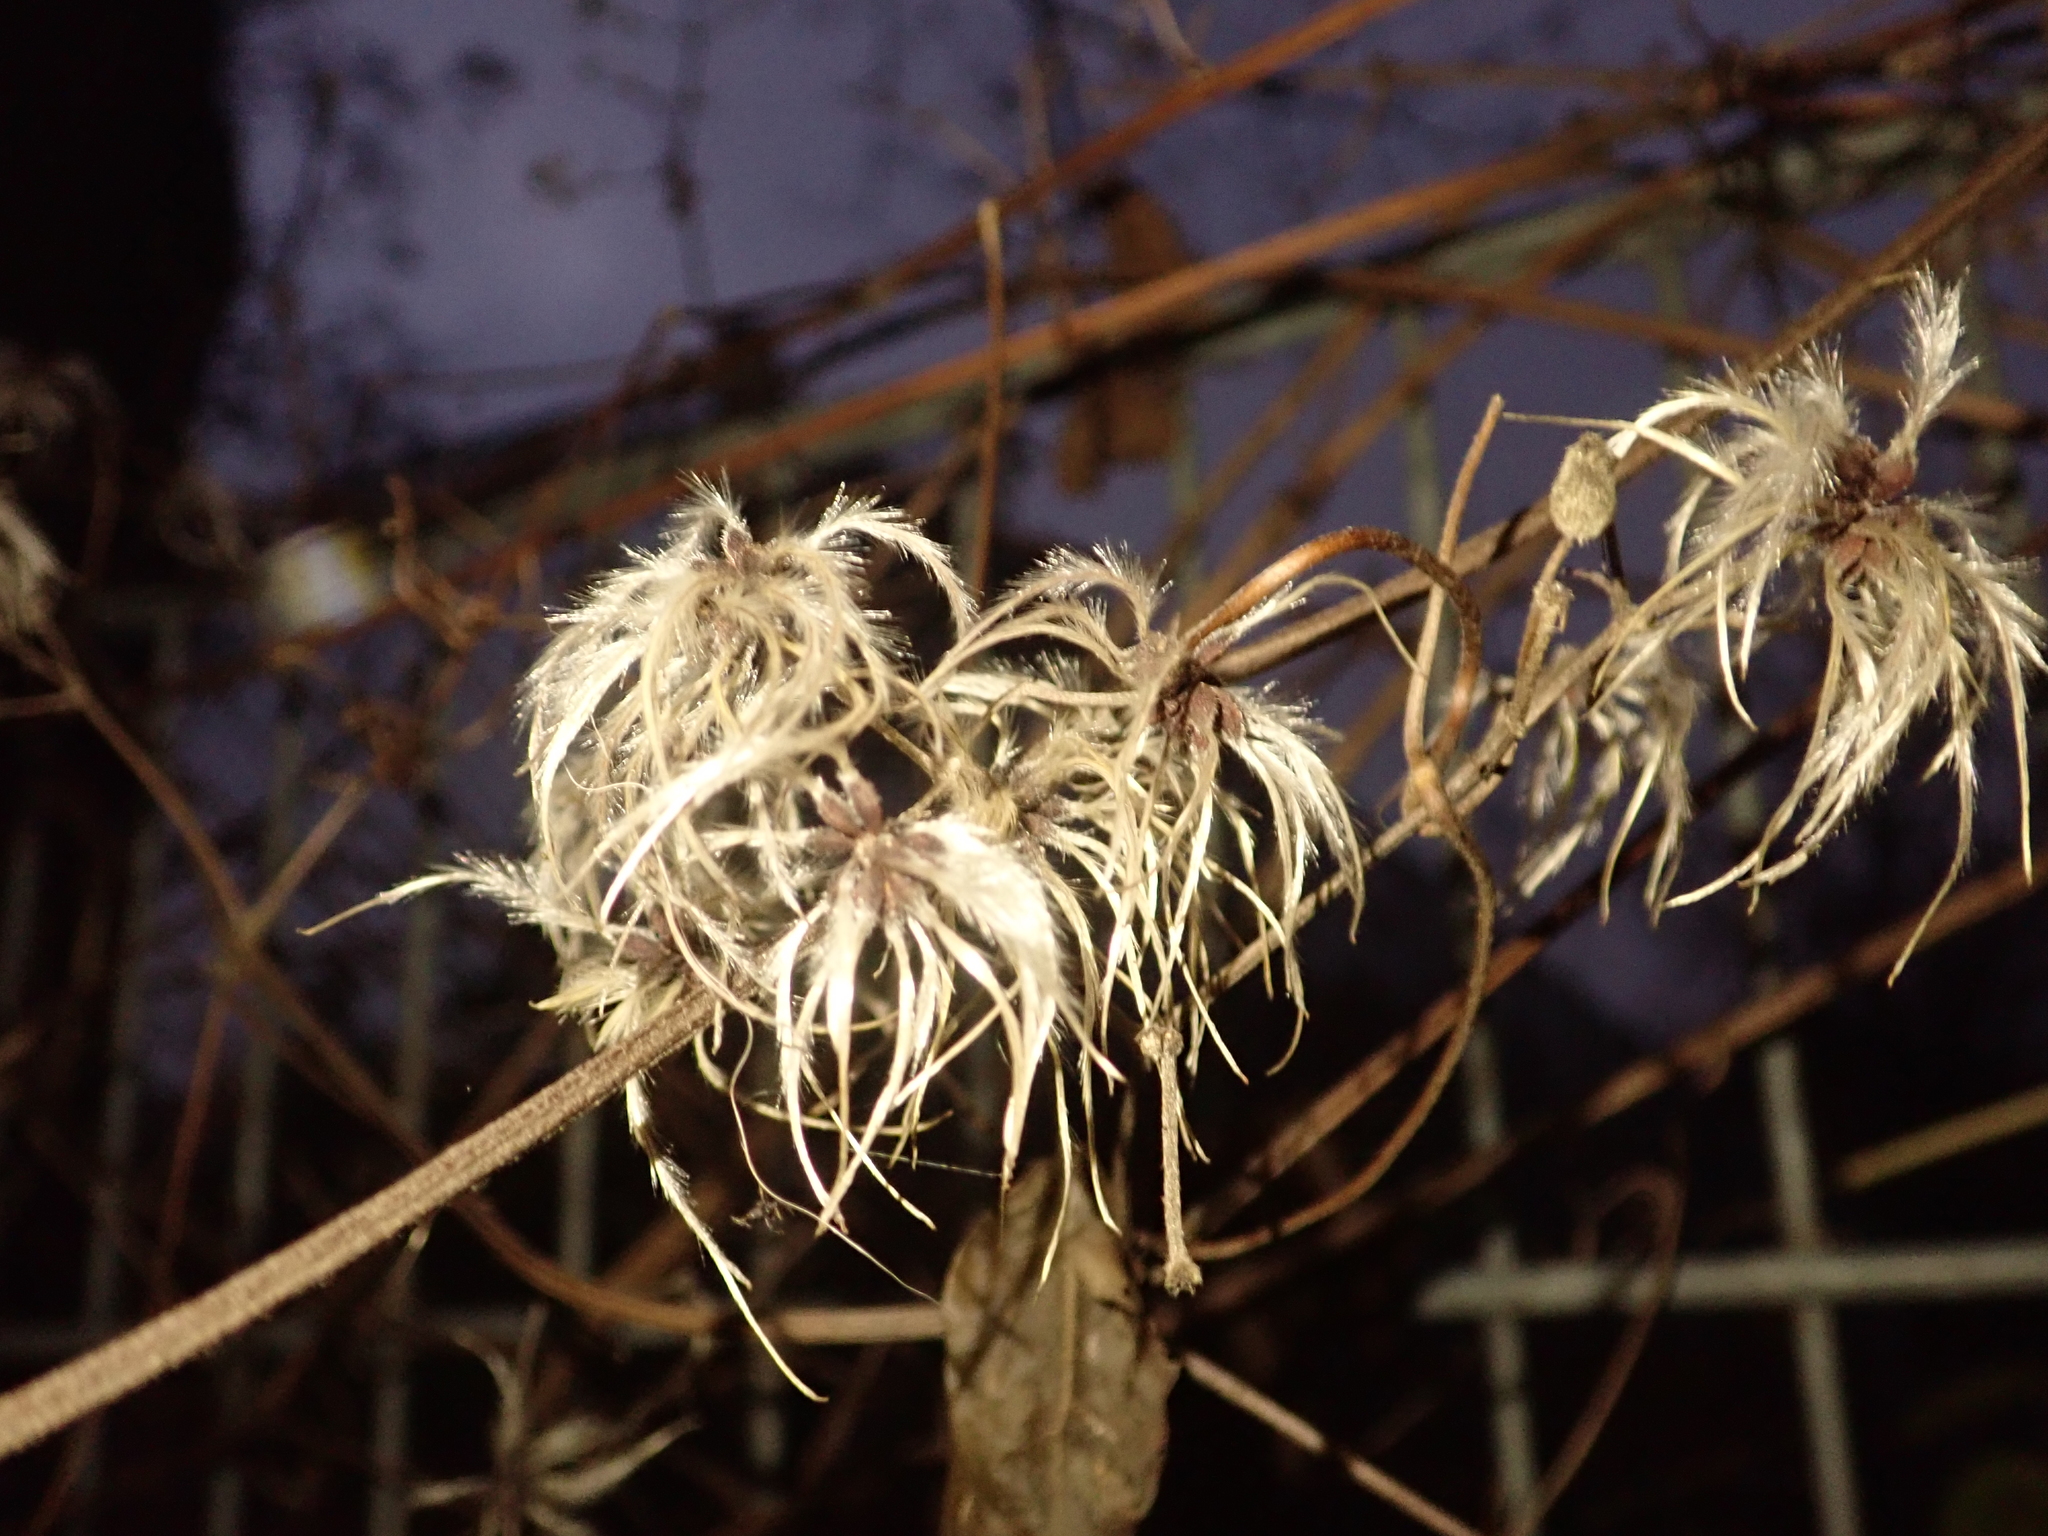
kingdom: Plantae
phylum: Tracheophyta
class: Magnoliopsida
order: Ranunculales
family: Ranunculaceae
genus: Clematis
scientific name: Clematis vitalba
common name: Evergreen clematis
